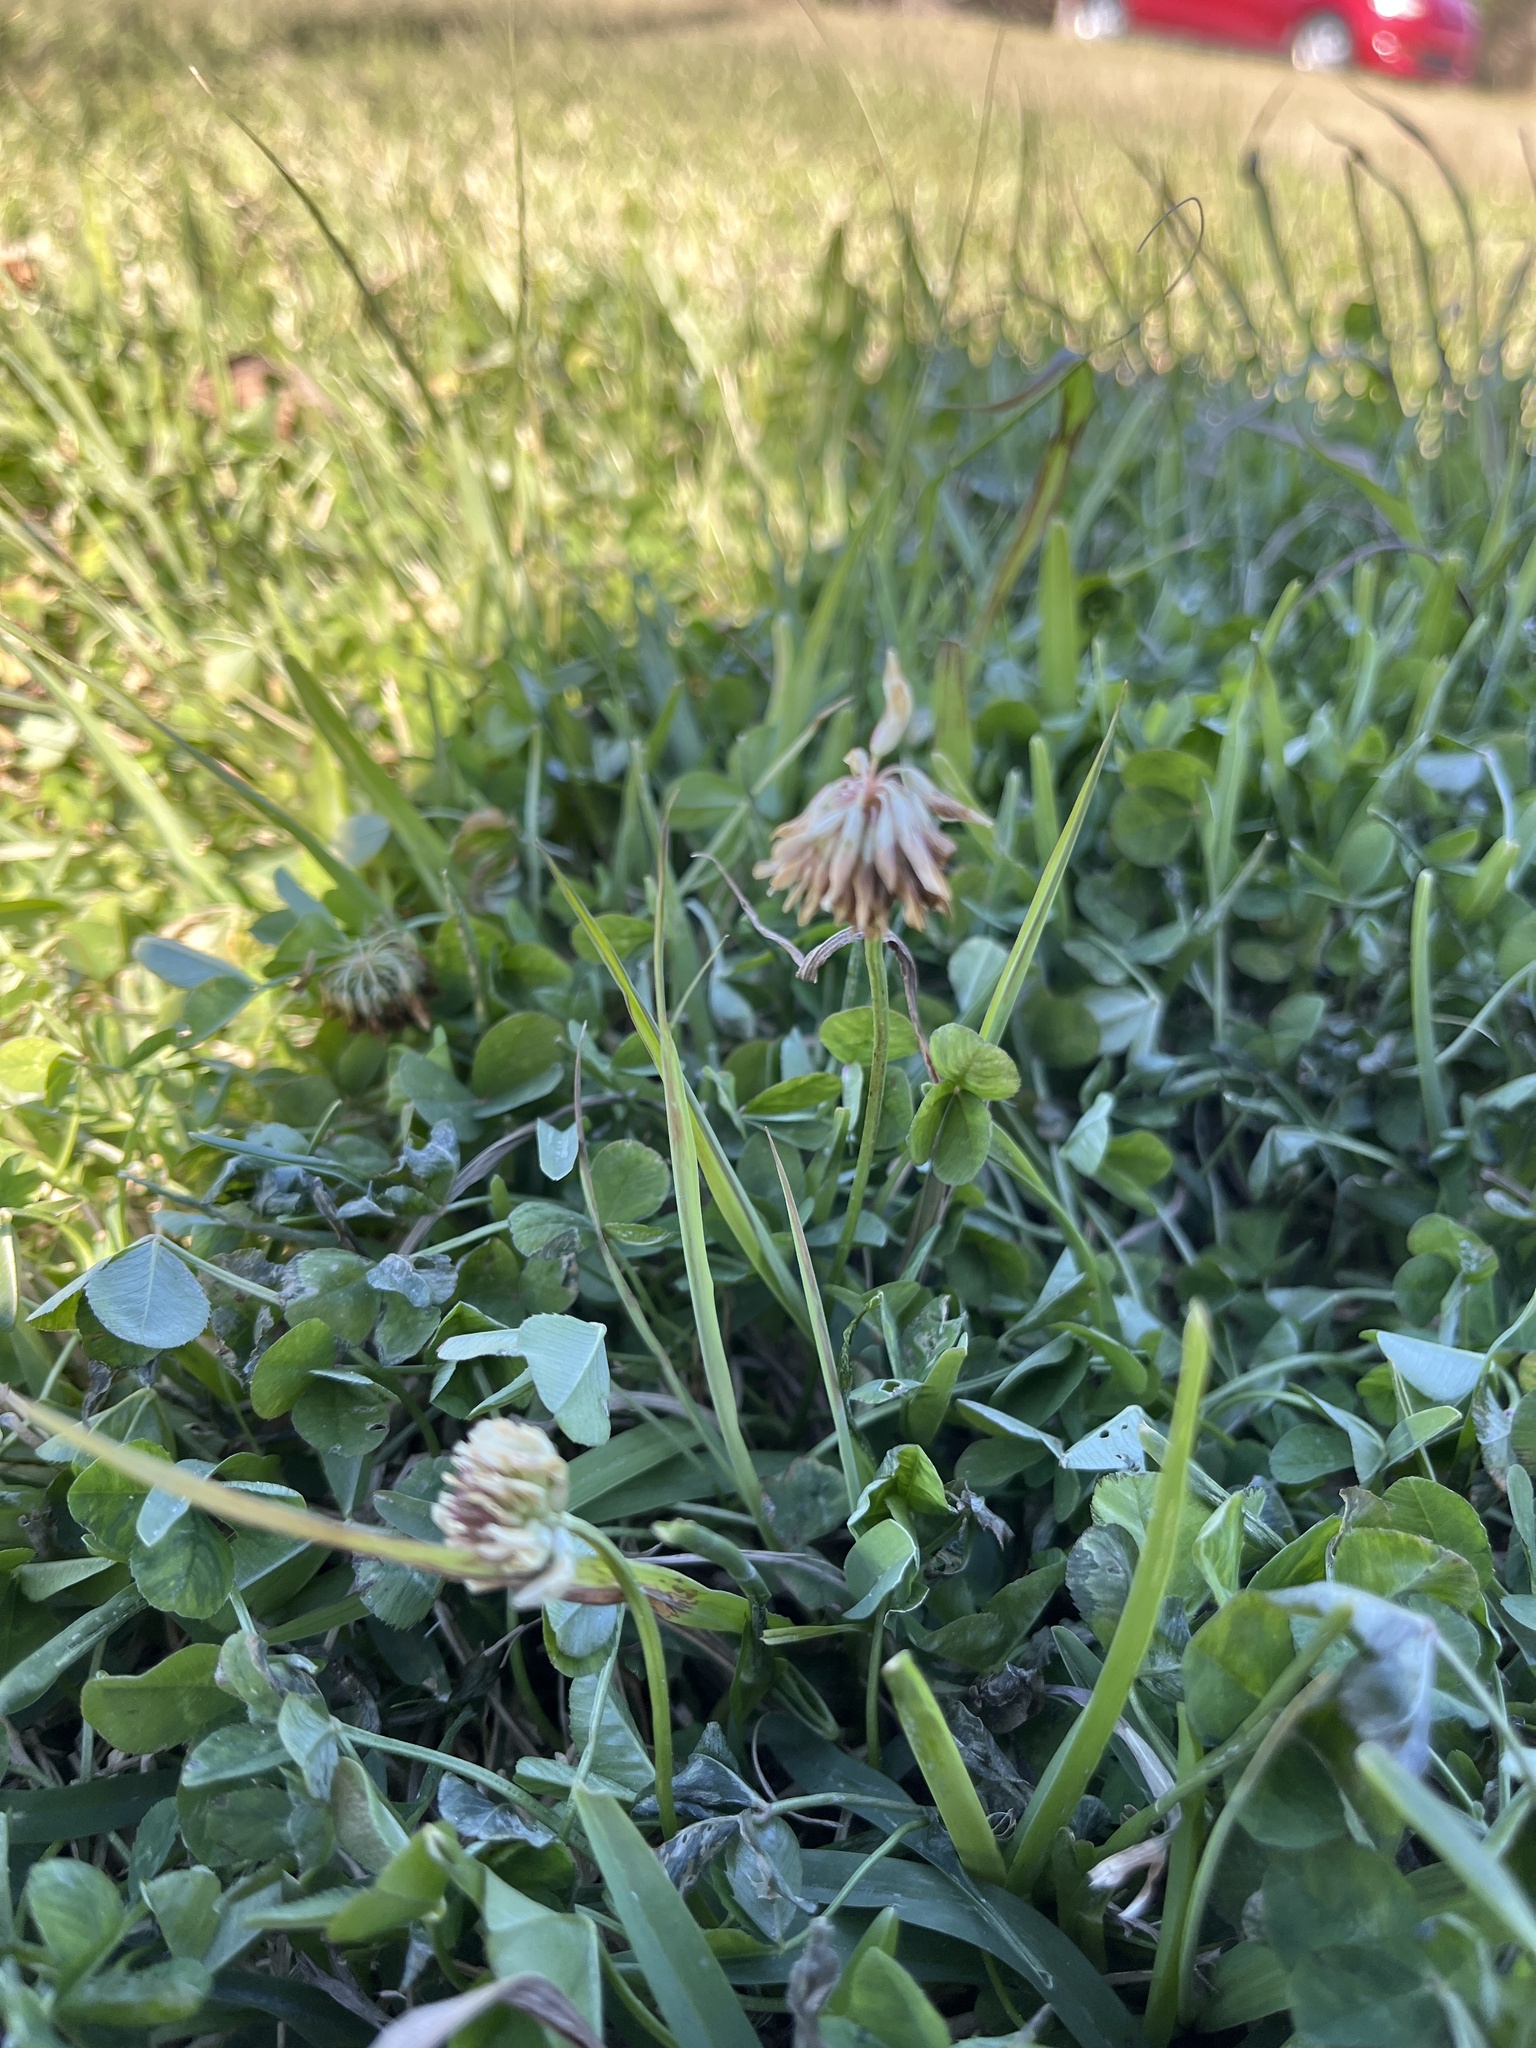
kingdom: Plantae
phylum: Tracheophyta
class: Magnoliopsida
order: Fabales
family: Fabaceae
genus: Trifolium
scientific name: Trifolium repens
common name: White clover
